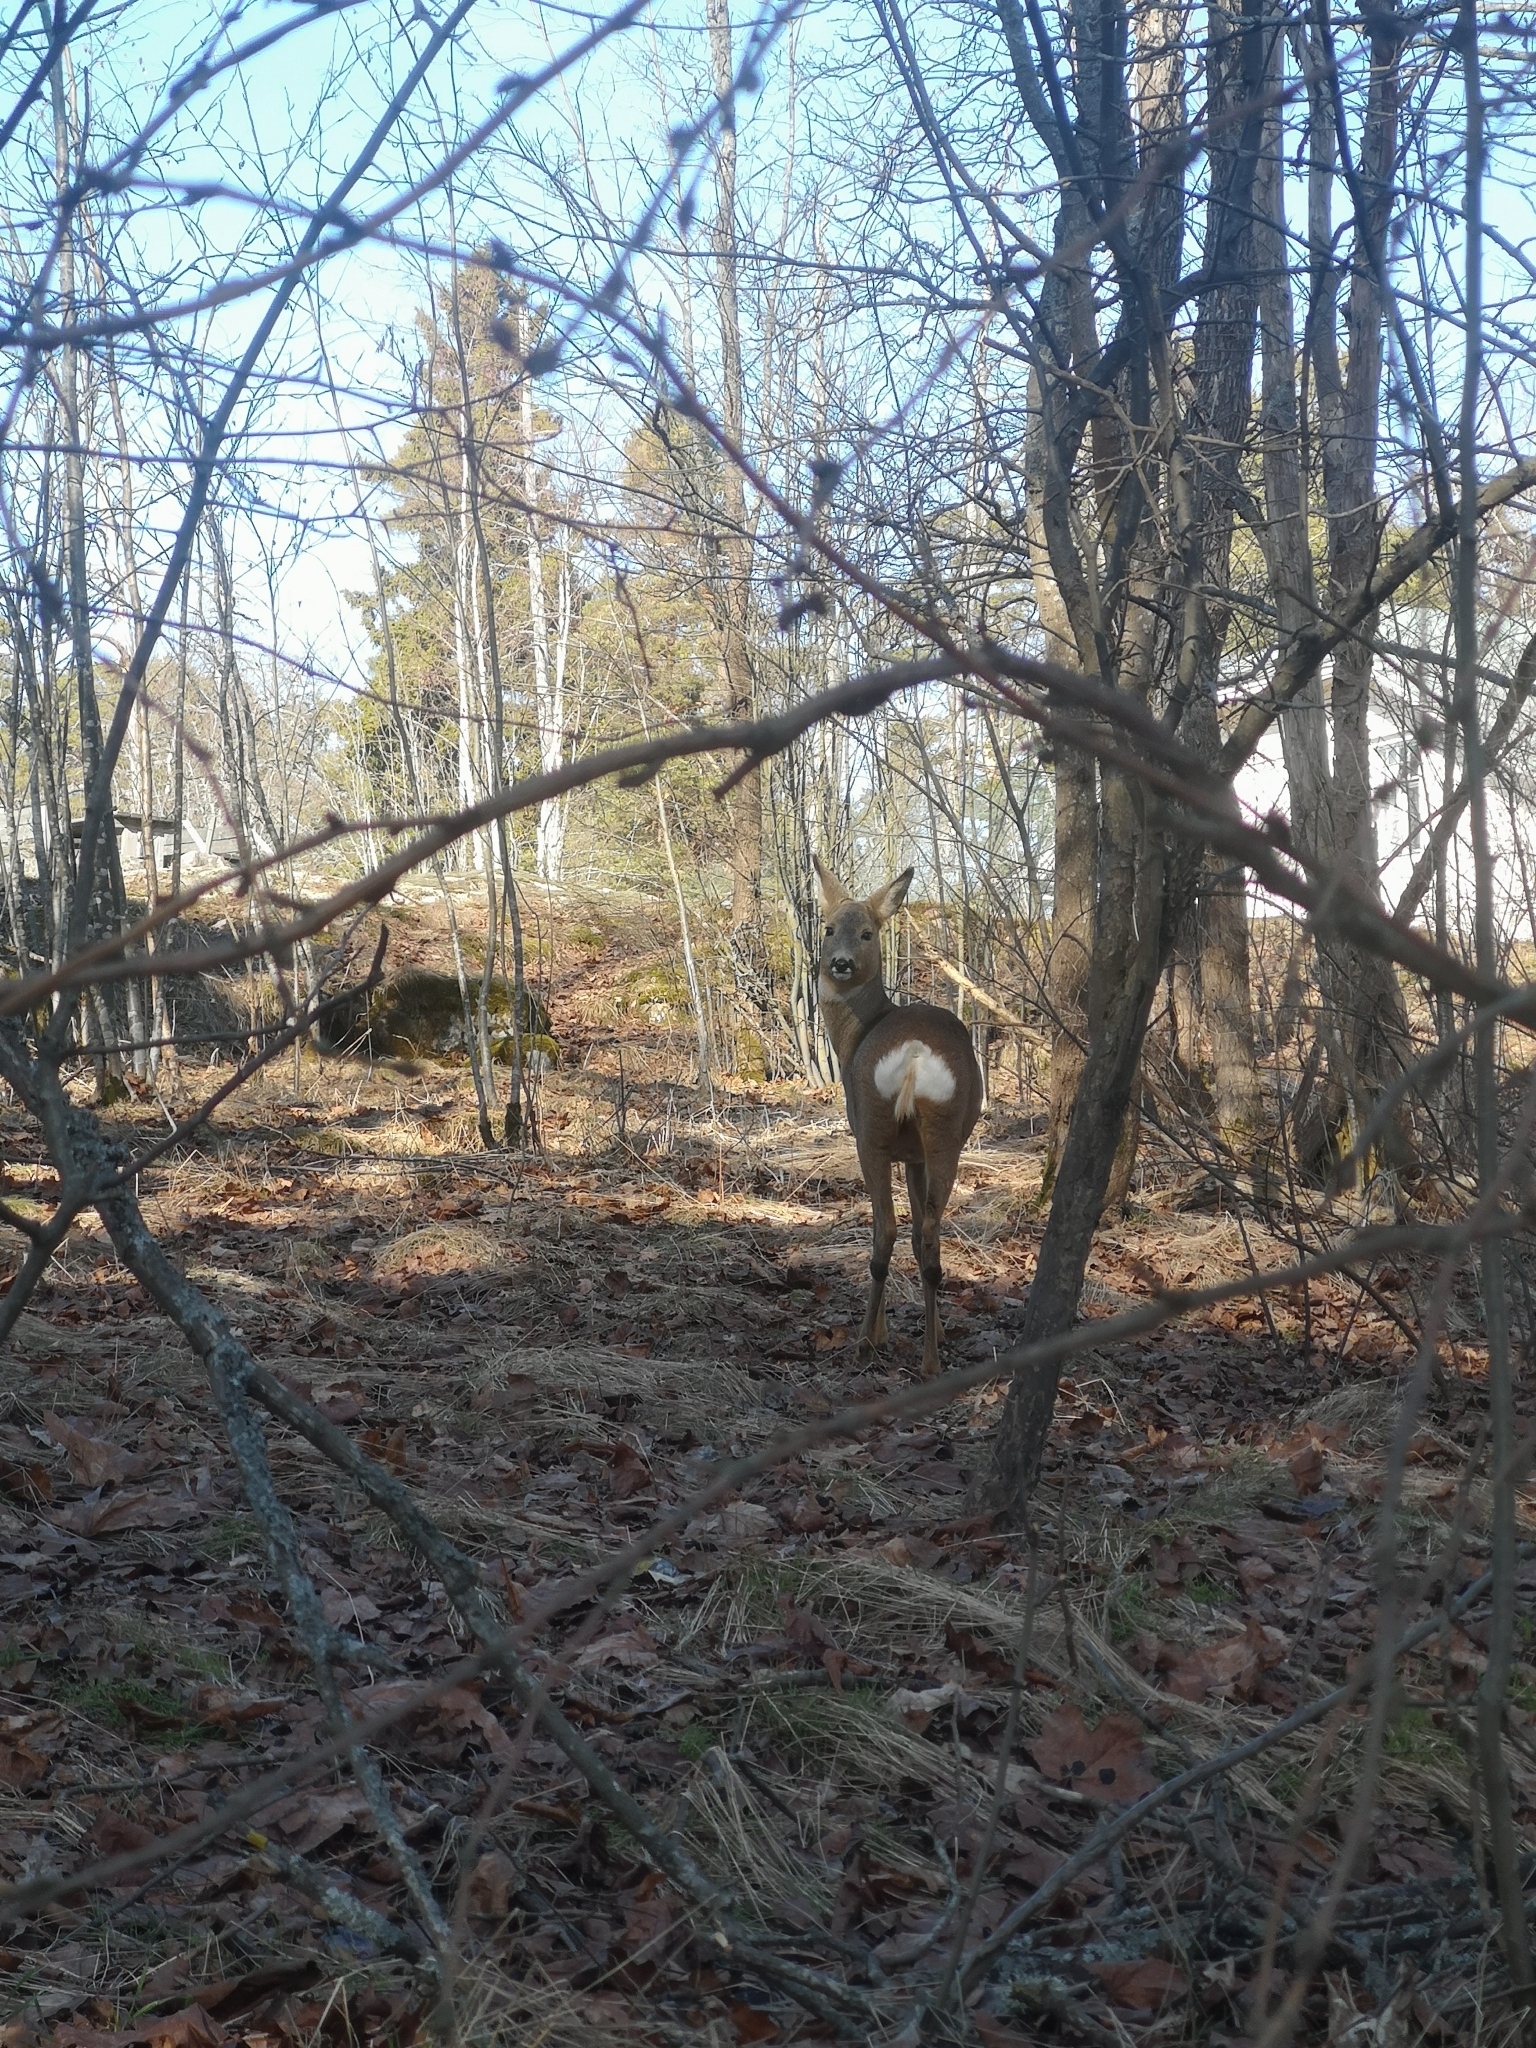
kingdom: Animalia
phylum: Chordata
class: Mammalia
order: Artiodactyla
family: Cervidae
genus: Capreolus
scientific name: Capreolus capreolus
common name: Western roe deer
